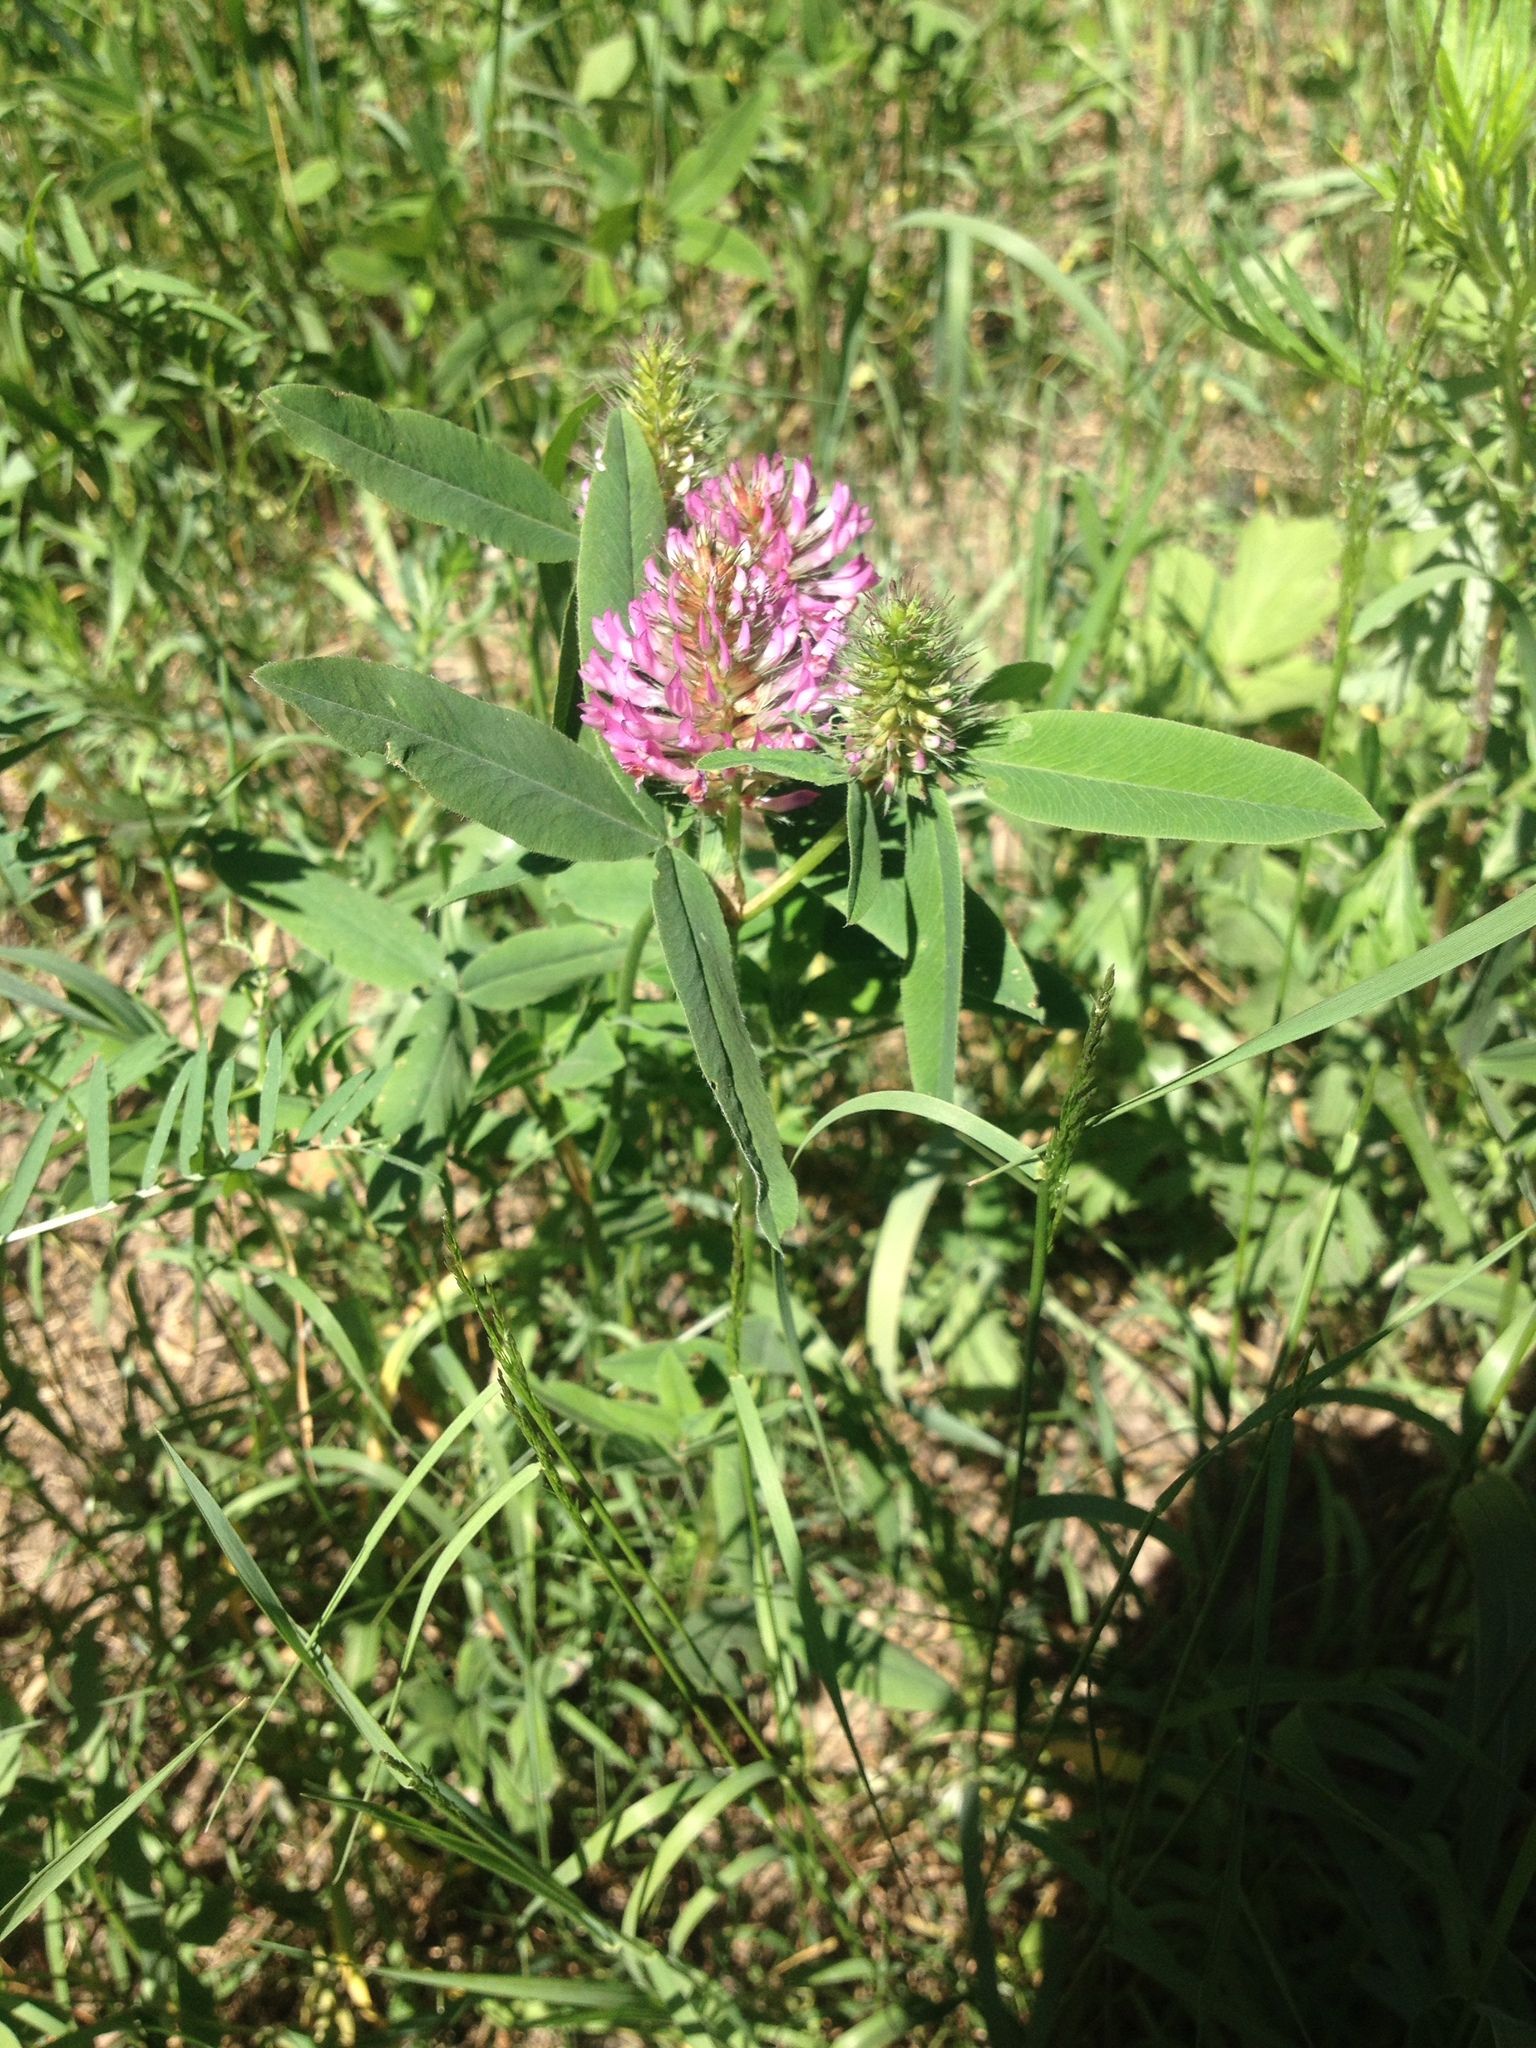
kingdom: Plantae
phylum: Tracheophyta
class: Magnoliopsida
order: Fabales
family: Fabaceae
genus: Trifolium
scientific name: Trifolium medium
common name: Zigzag clover
